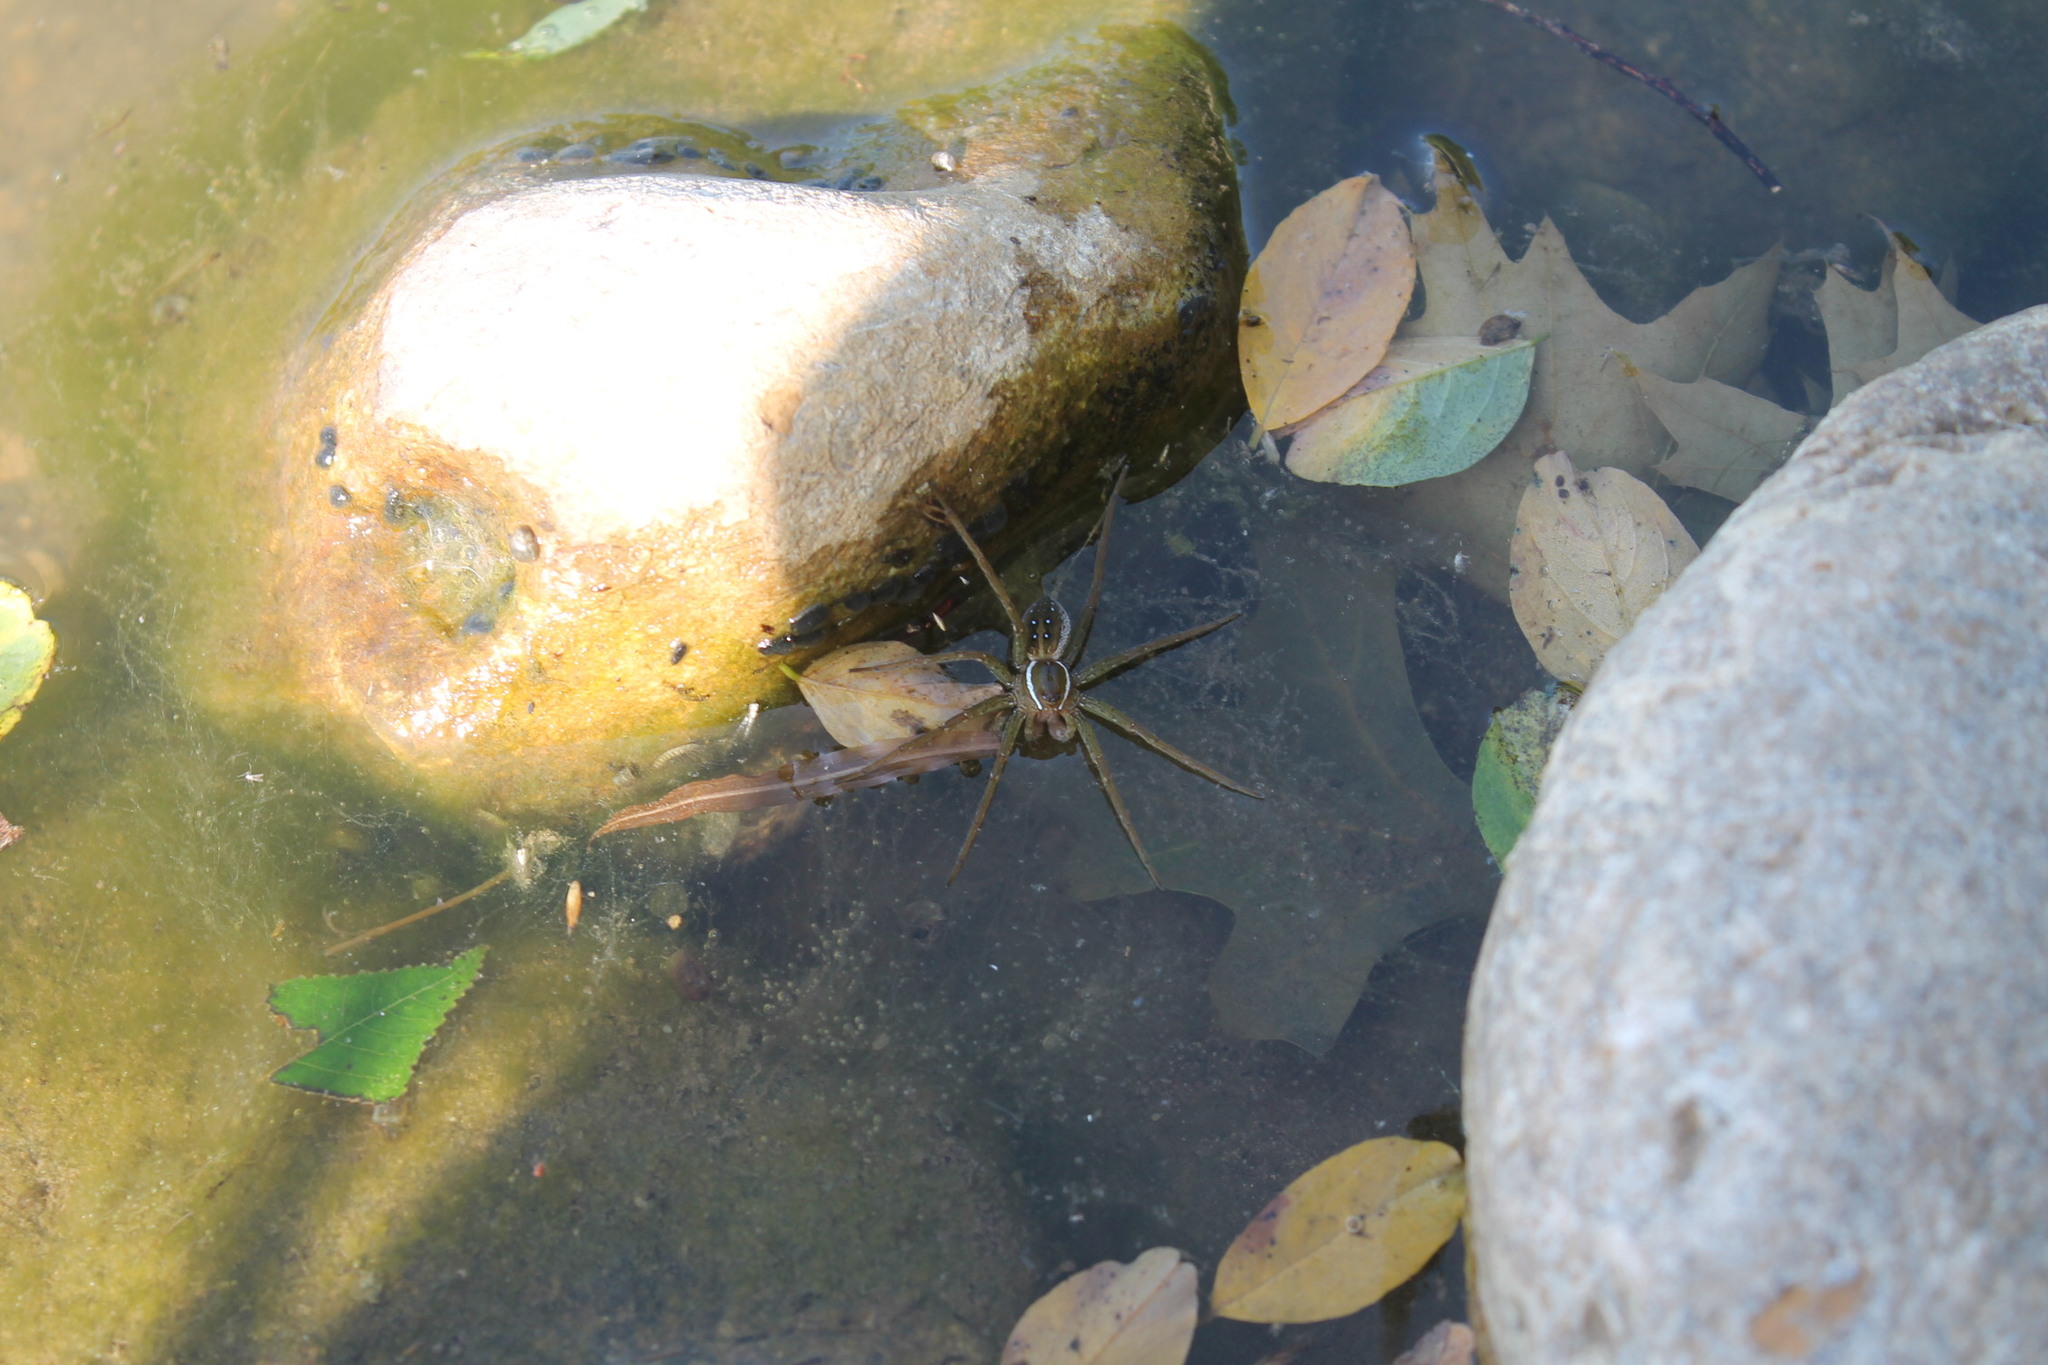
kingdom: Animalia
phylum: Arthropoda
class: Arachnida
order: Araneae
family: Pisauridae
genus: Dolomedes
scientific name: Dolomedes triton
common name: Six-spotted fishing spider
